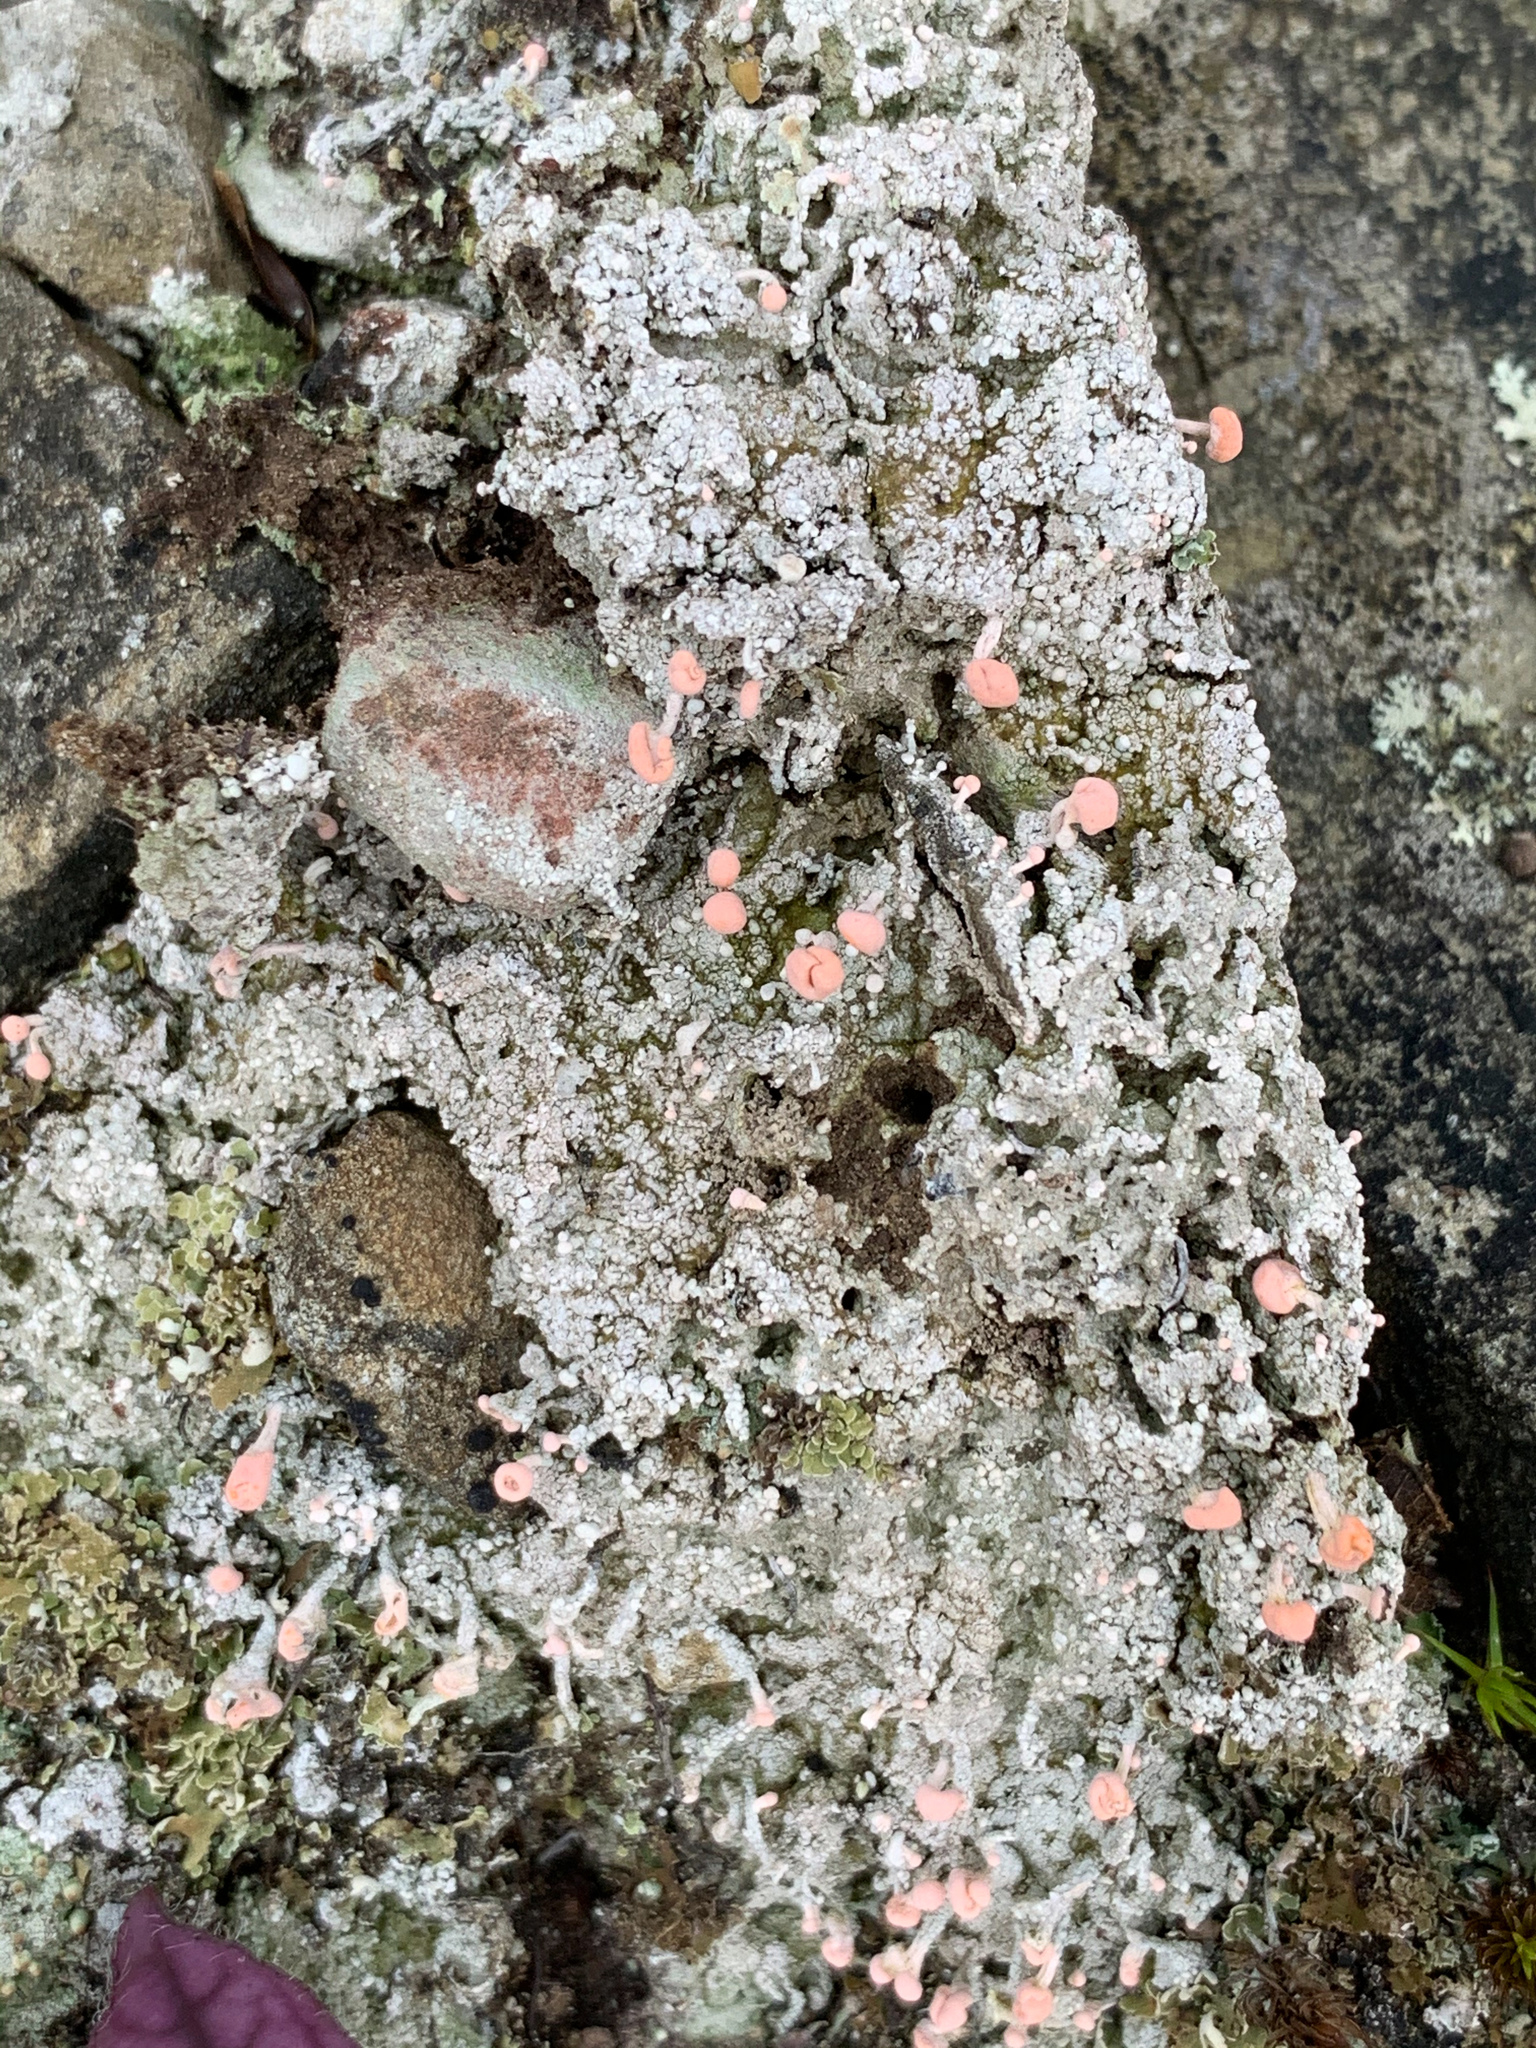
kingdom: Fungi
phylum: Ascomycota
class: Lecanoromycetes
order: Pertusariales
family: Icmadophilaceae
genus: Dibaeis
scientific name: Dibaeis baeomyces
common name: Pink earth lichen
